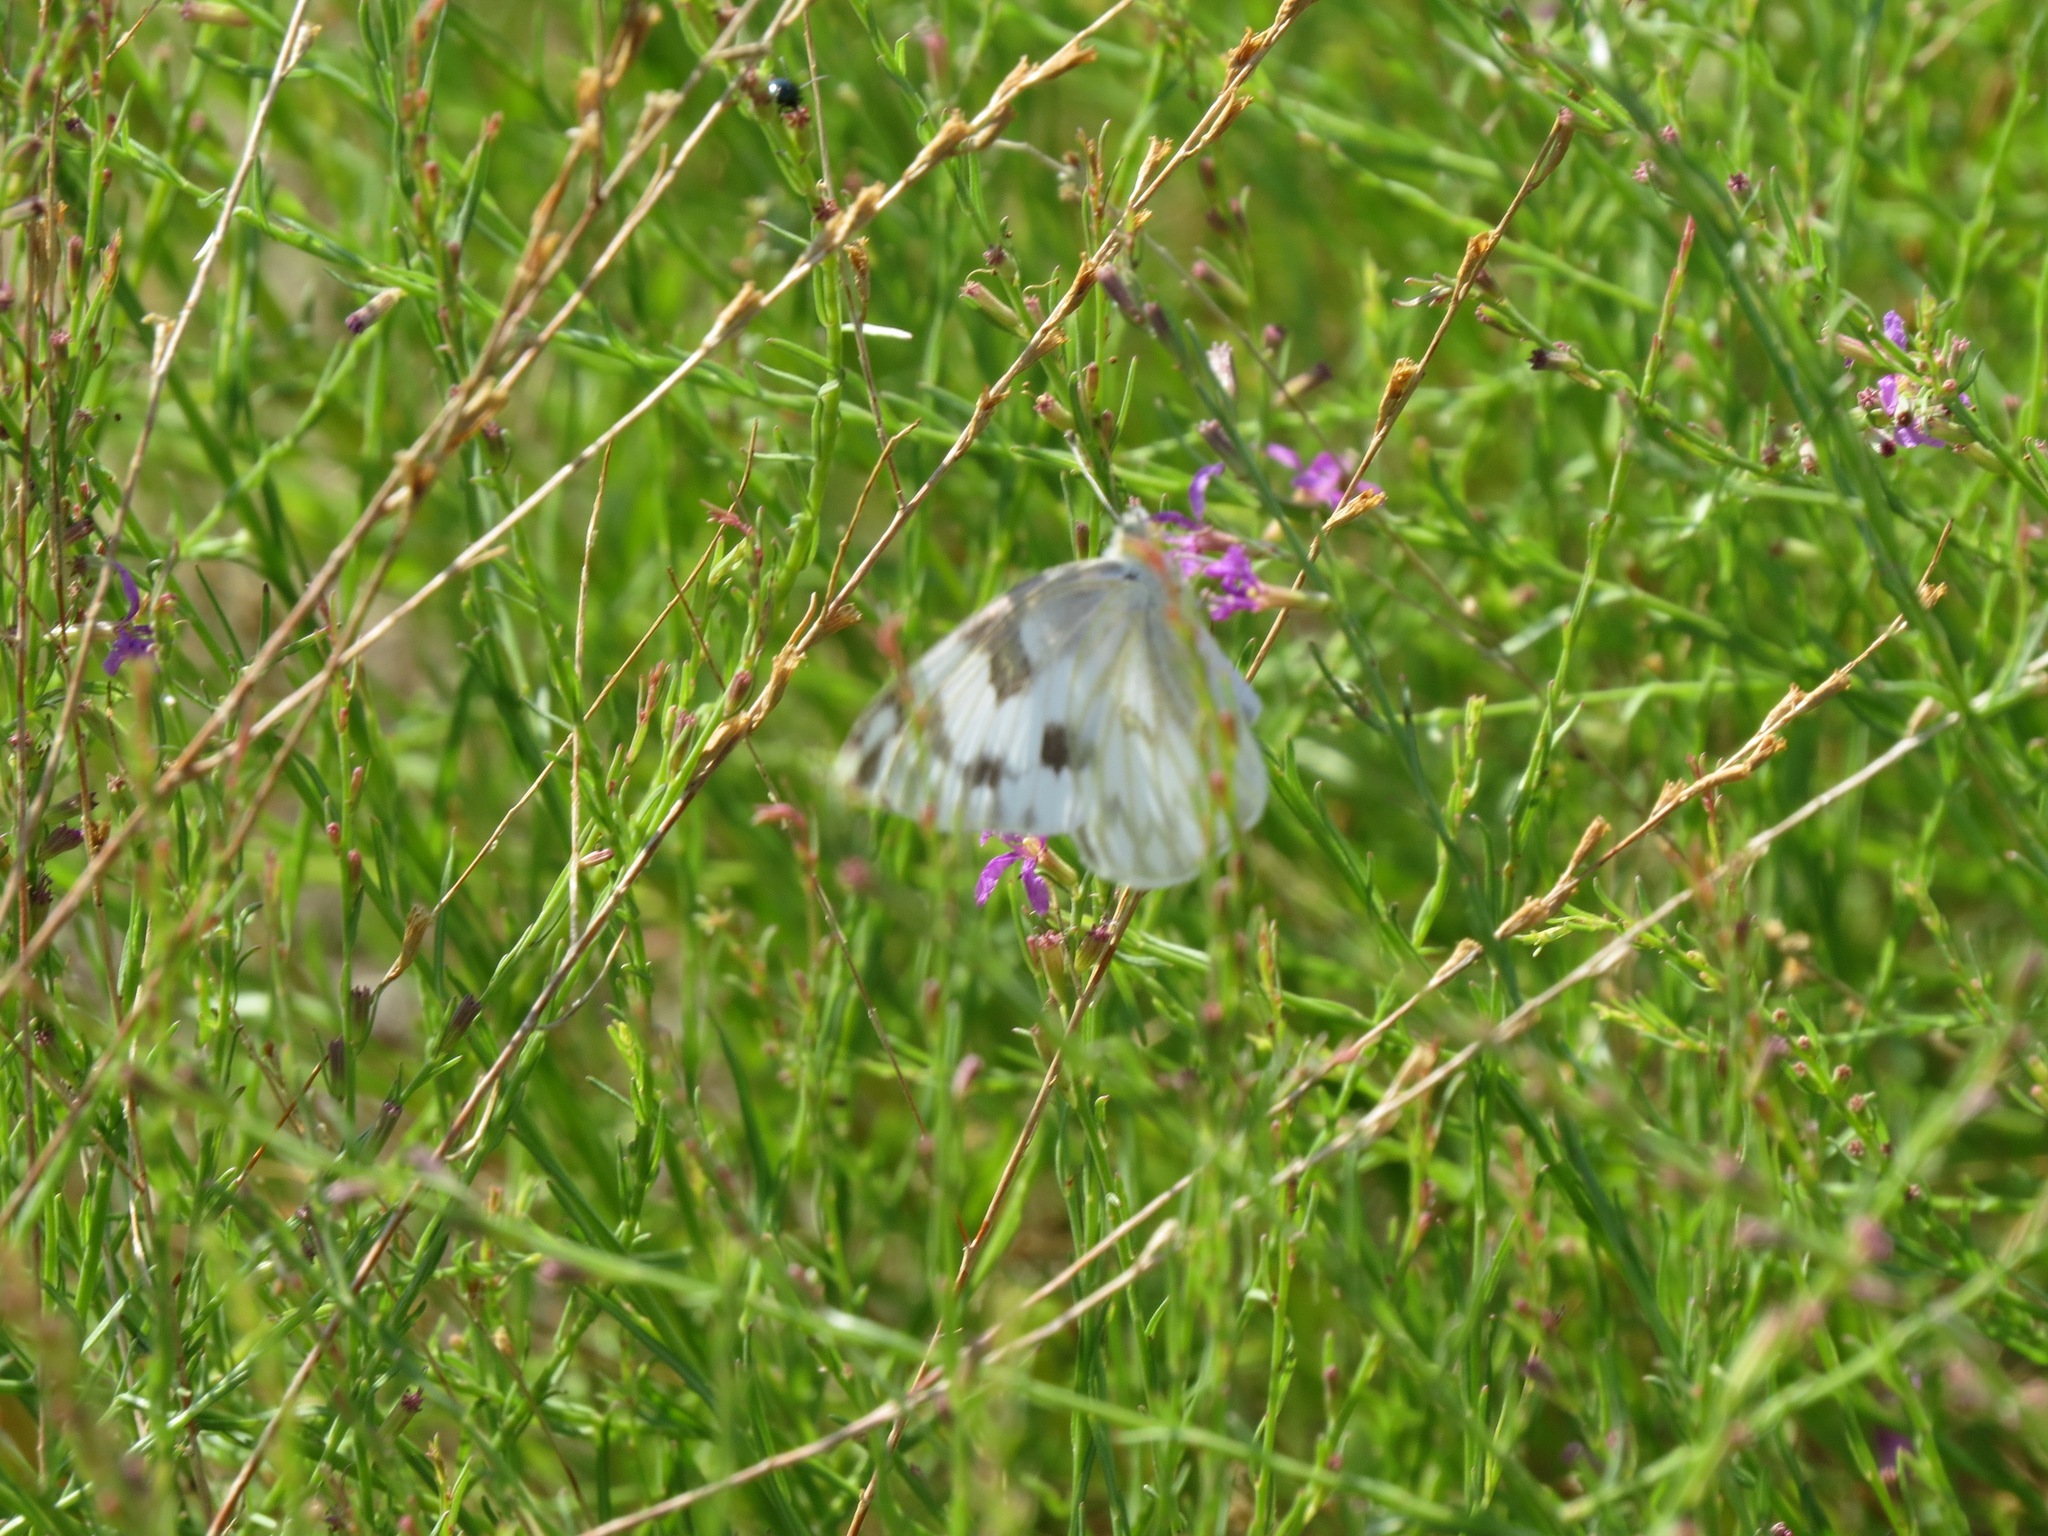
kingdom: Animalia
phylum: Arthropoda
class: Insecta
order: Lepidoptera
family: Pieridae
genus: Pontia
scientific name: Pontia protodice
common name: Checkered white
